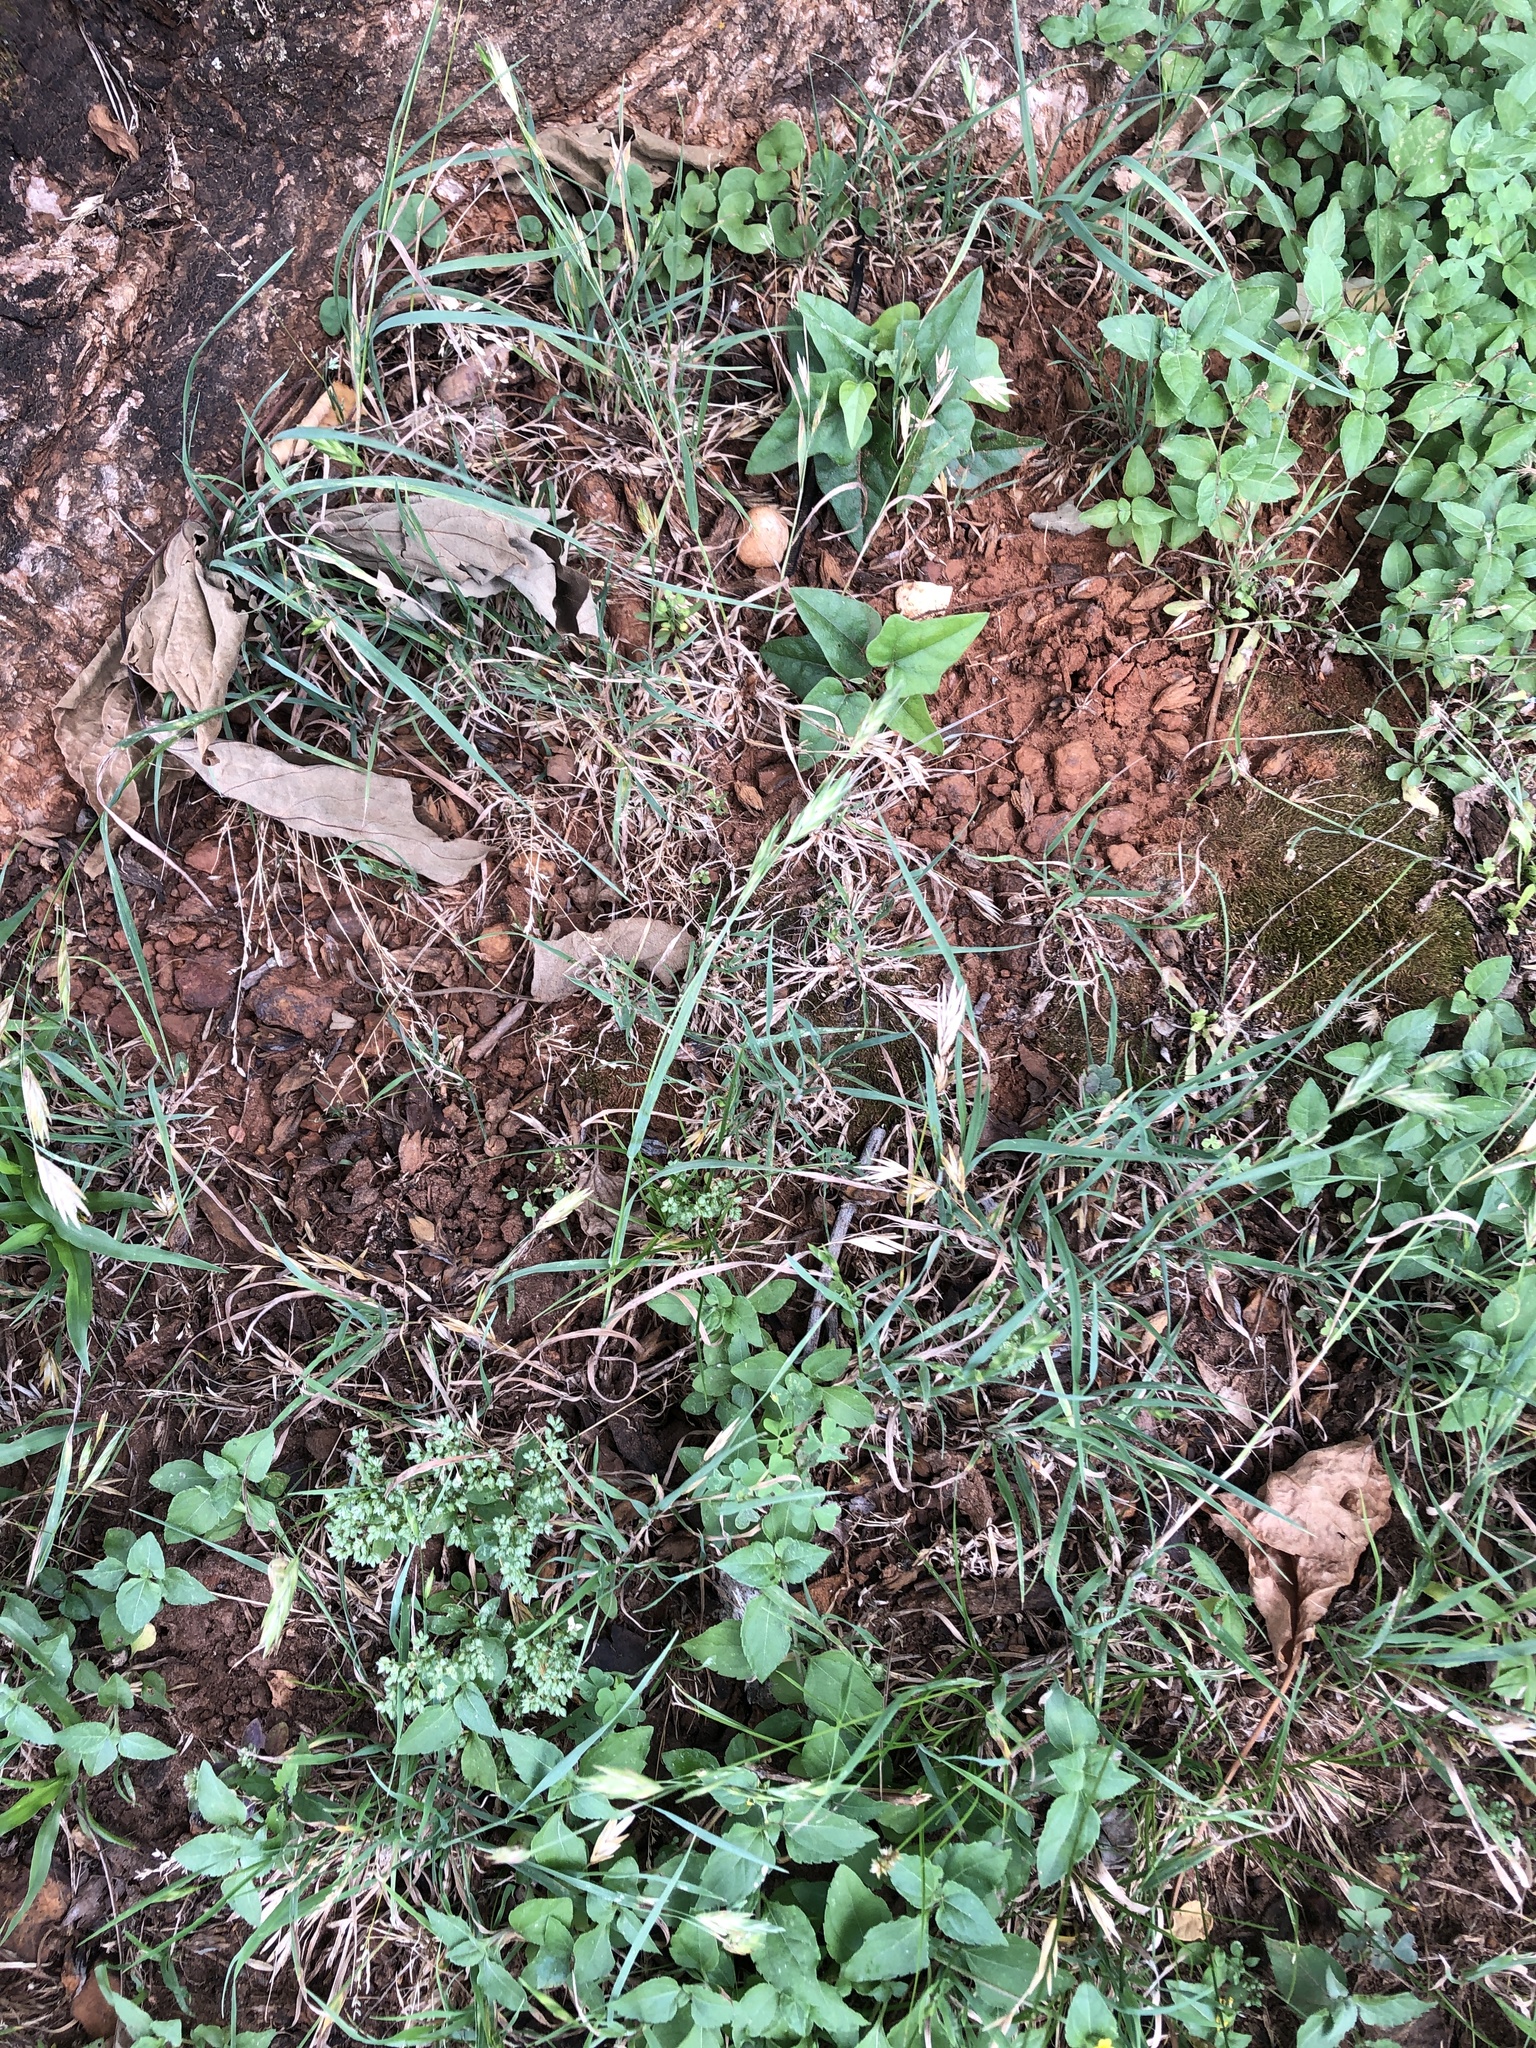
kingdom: Plantae
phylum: Tracheophyta
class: Liliopsida
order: Poales
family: Poaceae
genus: Bromus
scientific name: Bromus catharticus
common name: Rescuegrass
